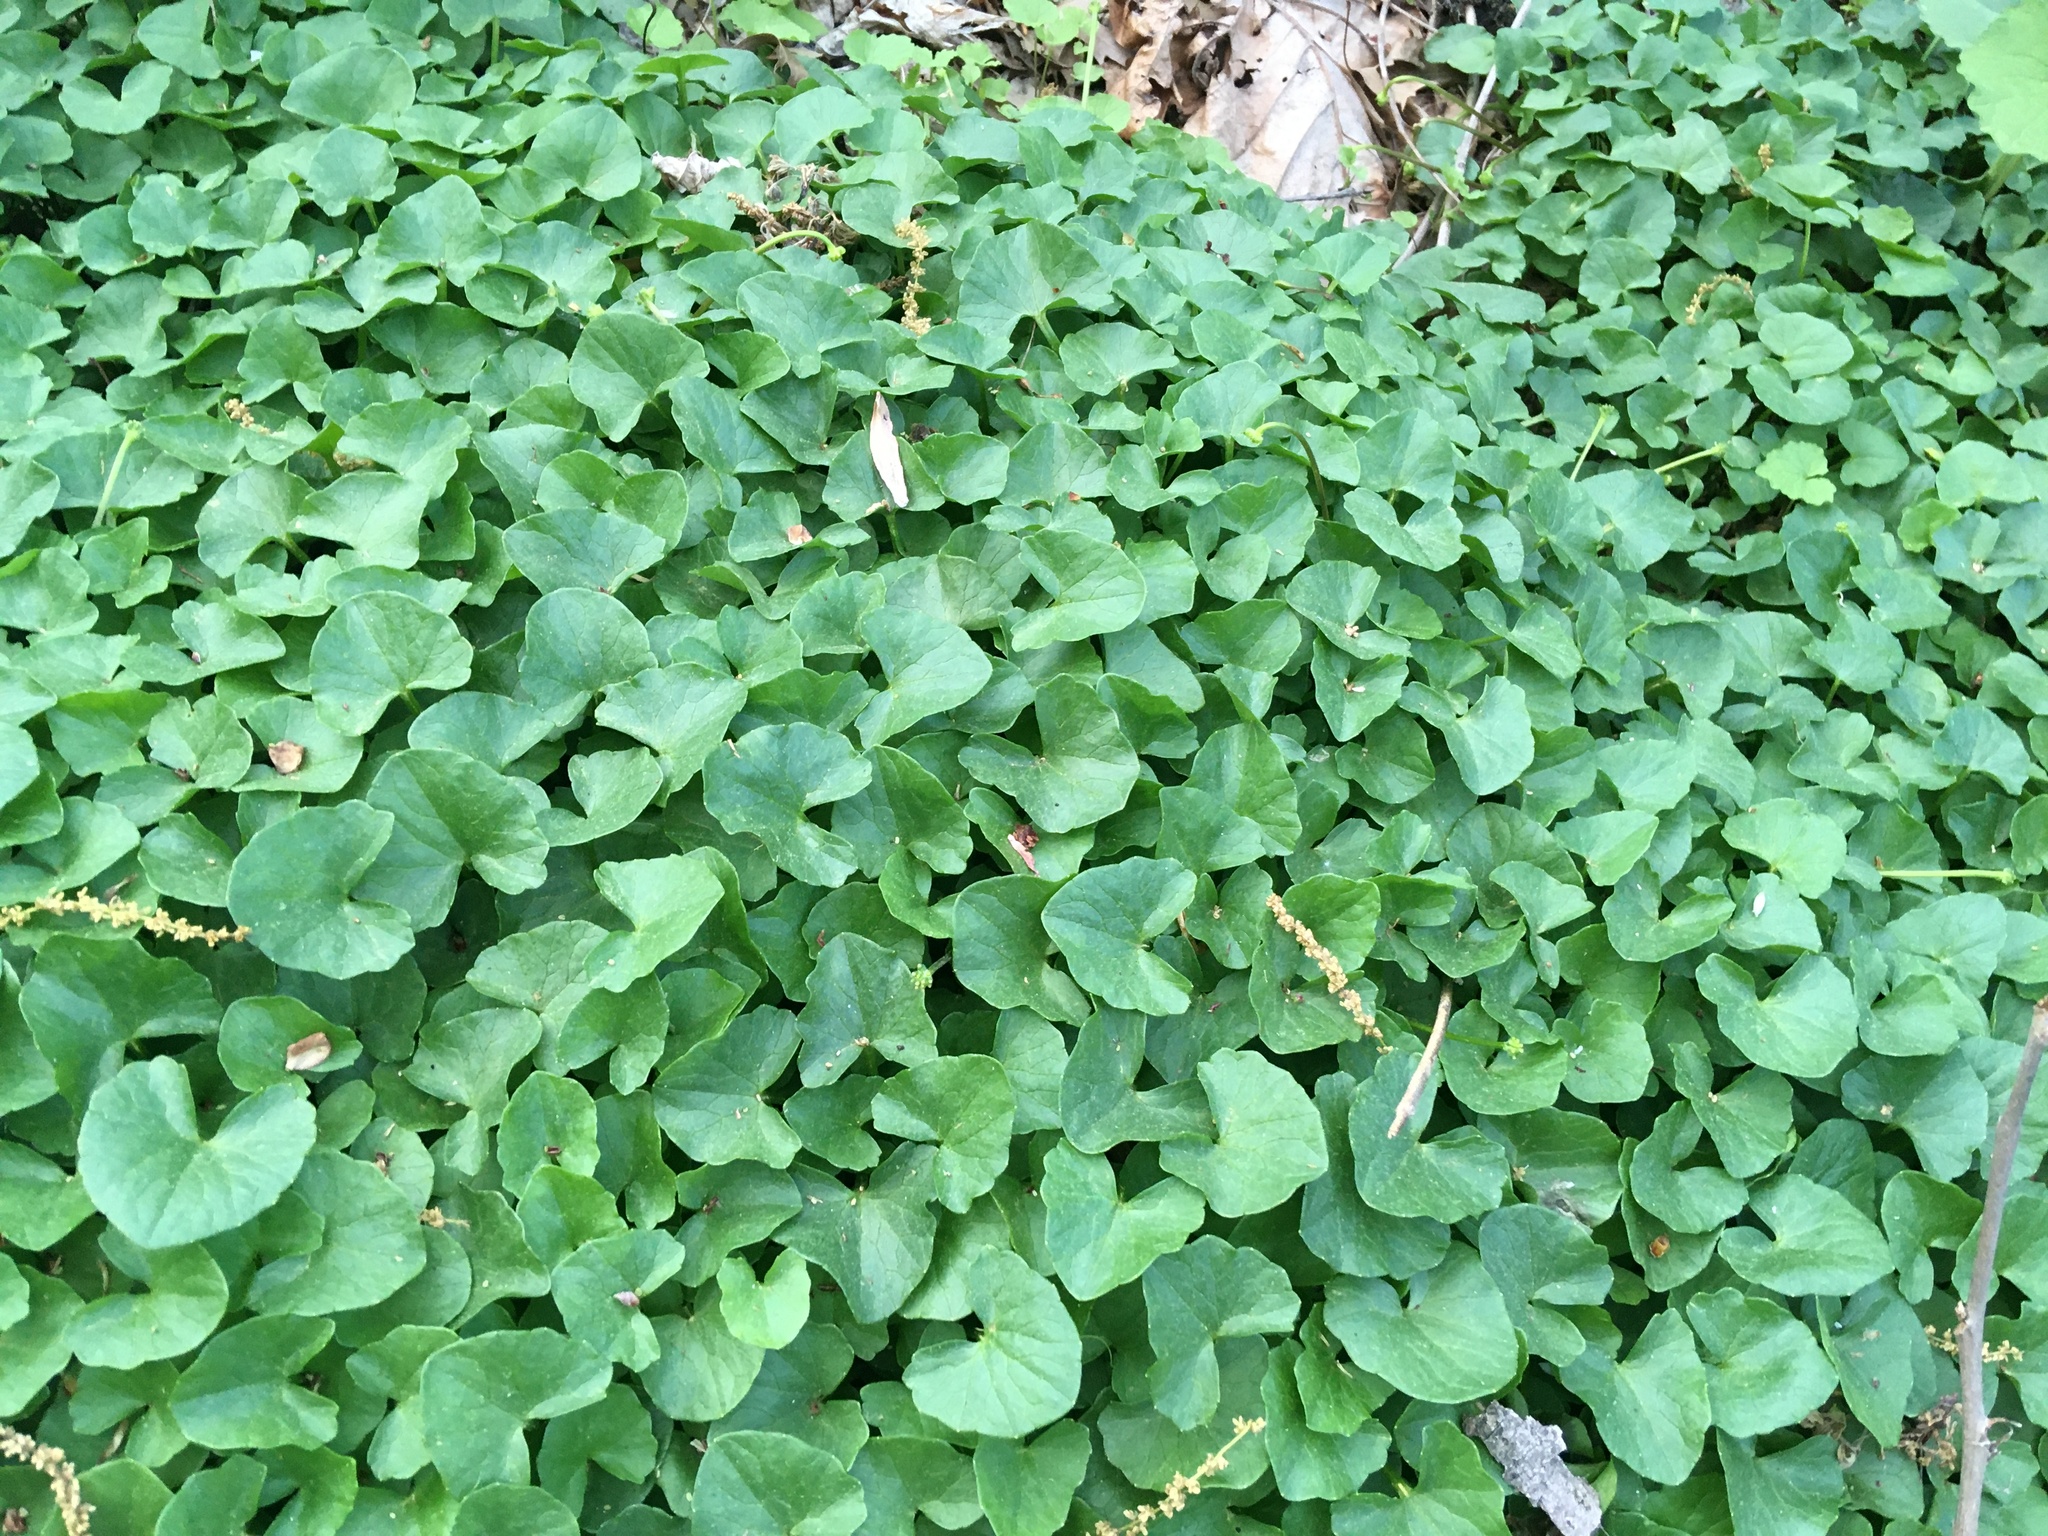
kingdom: Plantae
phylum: Tracheophyta
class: Magnoliopsida
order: Ranunculales
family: Ranunculaceae
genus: Ficaria
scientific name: Ficaria verna
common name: Lesser celandine
